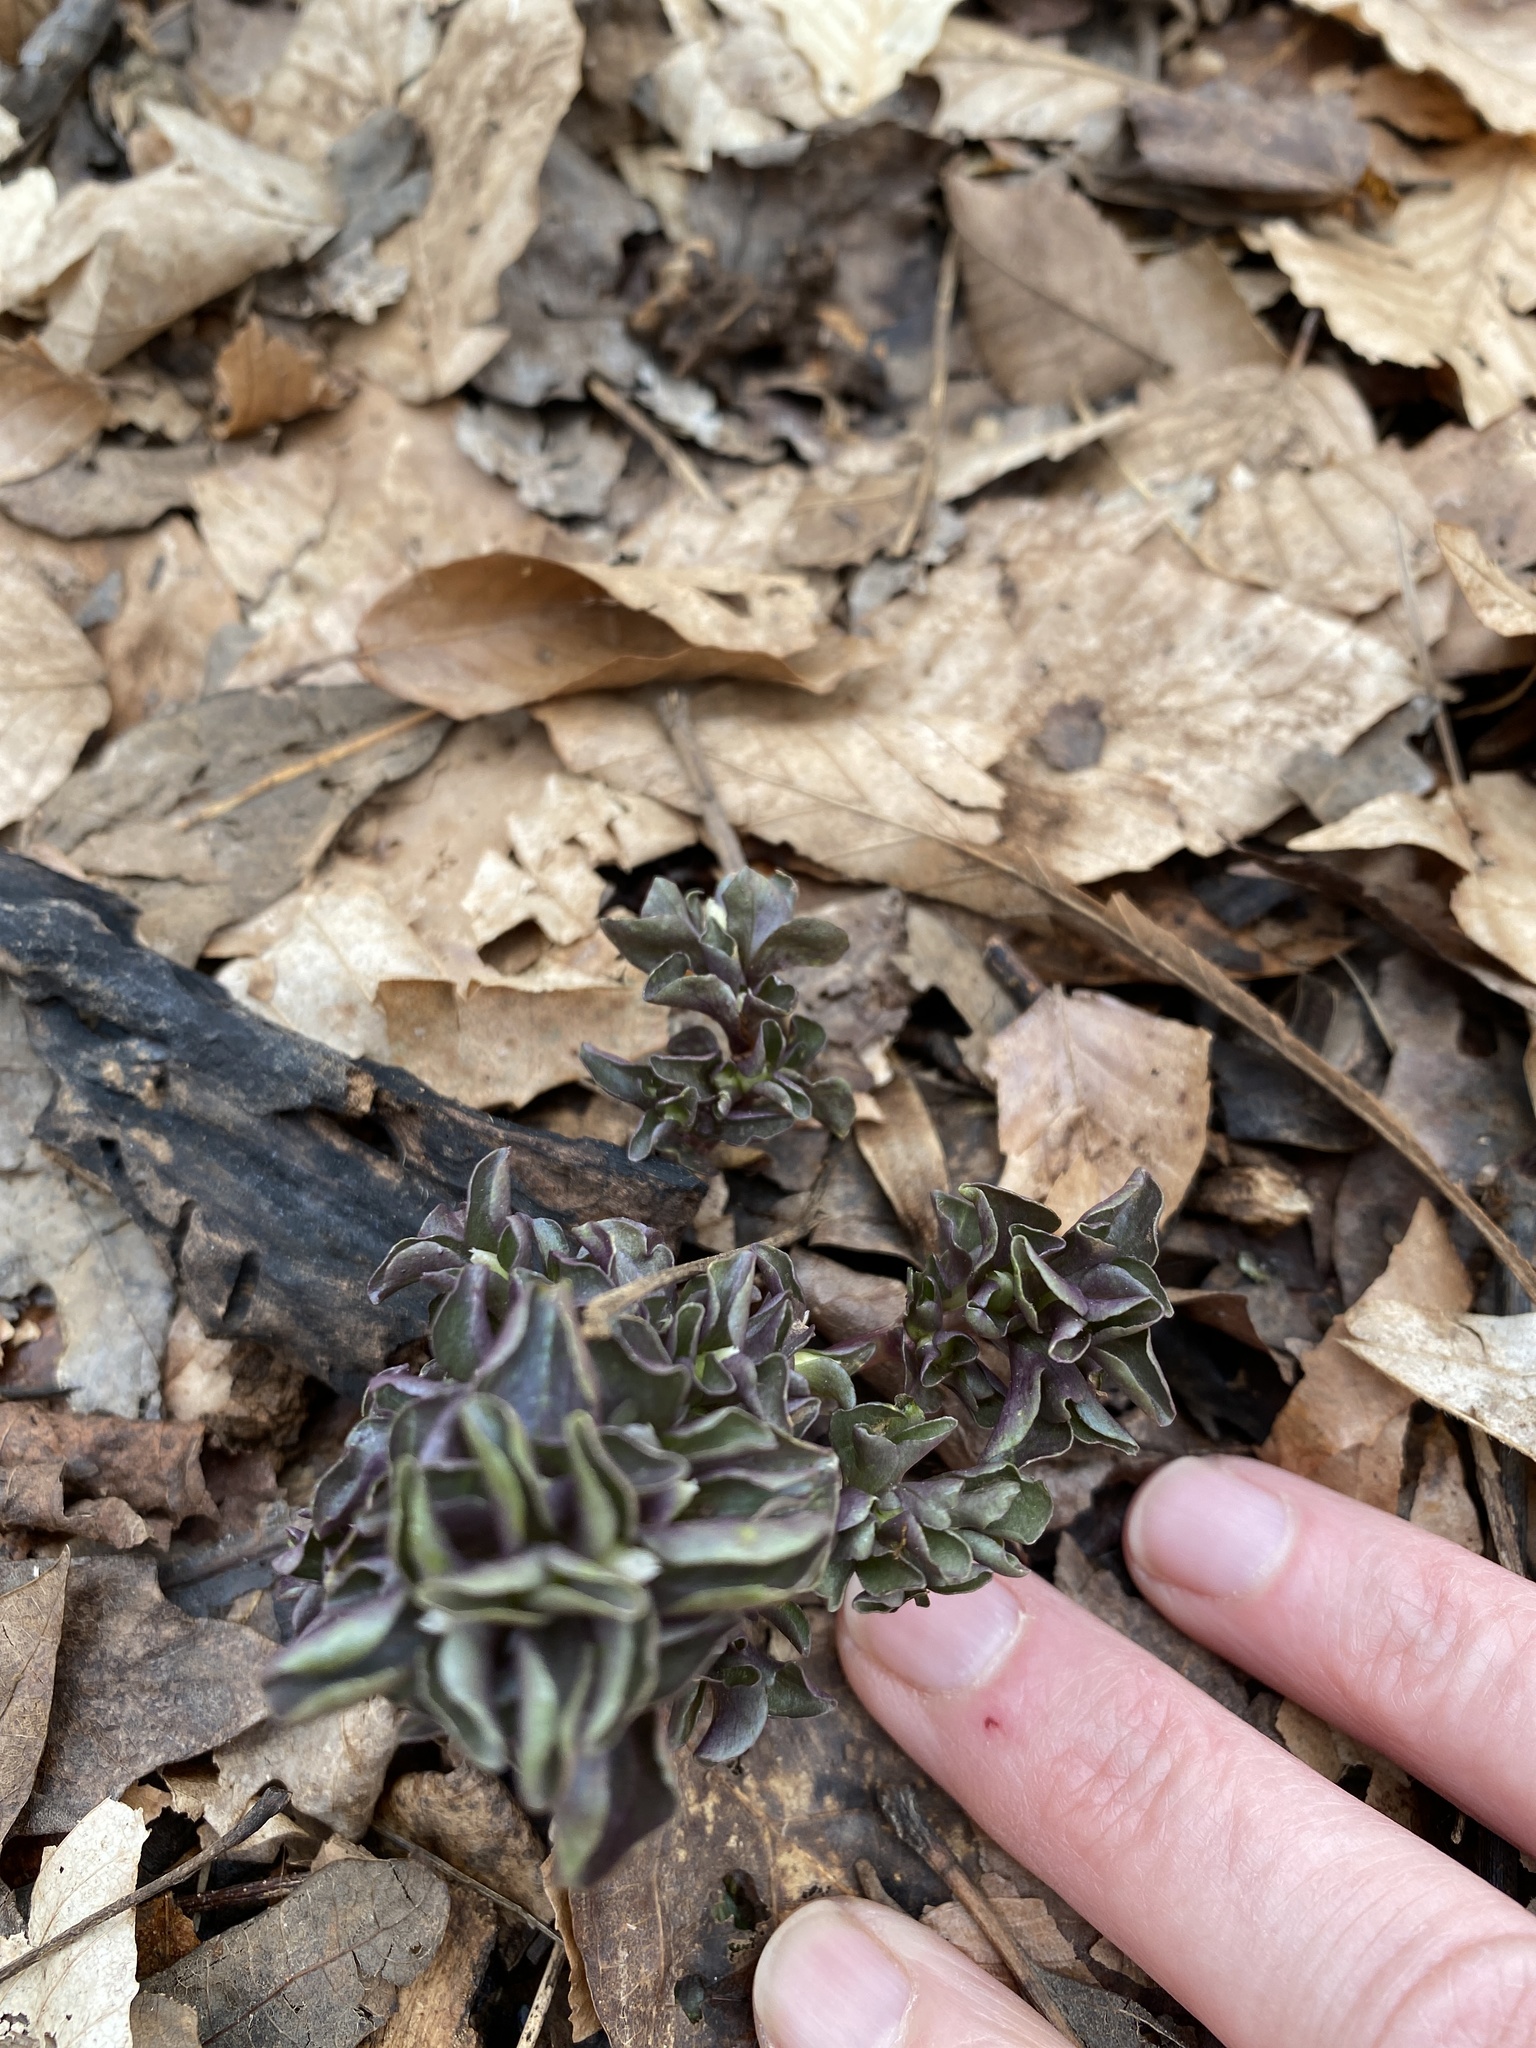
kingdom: Plantae
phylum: Tracheophyta
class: Magnoliopsida
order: Gentianales
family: Gentianaceae
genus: Obolaria
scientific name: Obolaria virginica
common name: Pennywort
